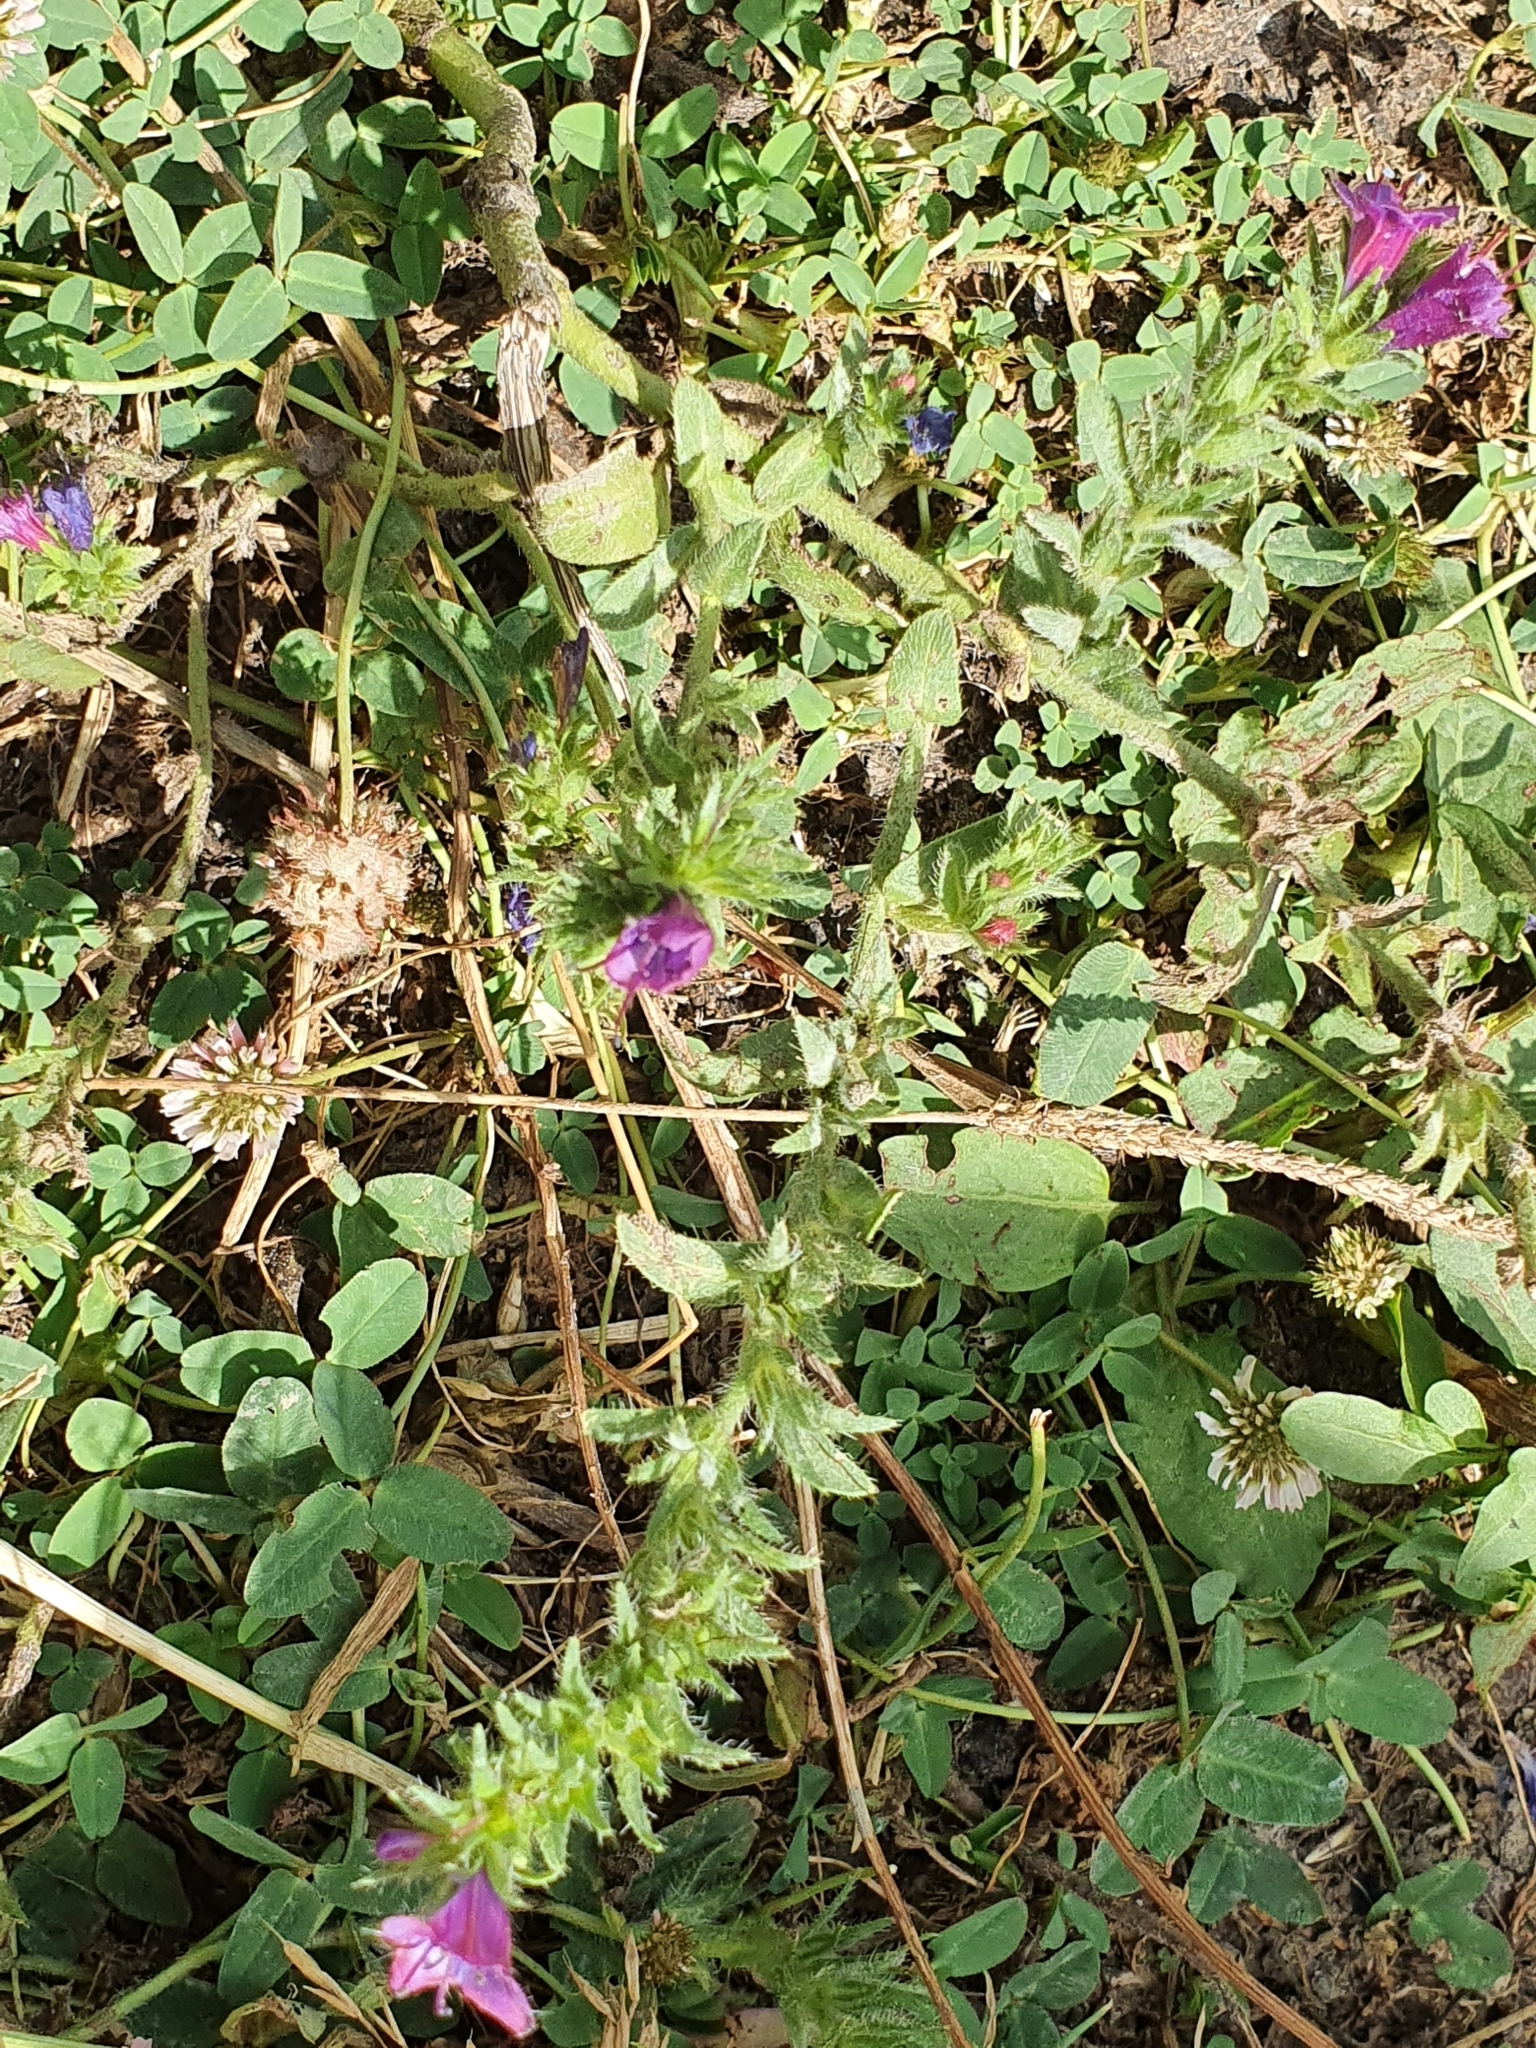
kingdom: Plantae
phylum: Tracheophyta
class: Magnoliopsida
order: Boraginales
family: Boraginaceae
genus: Echium
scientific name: Echium plantagineum
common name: Purple viper's-bugloss
